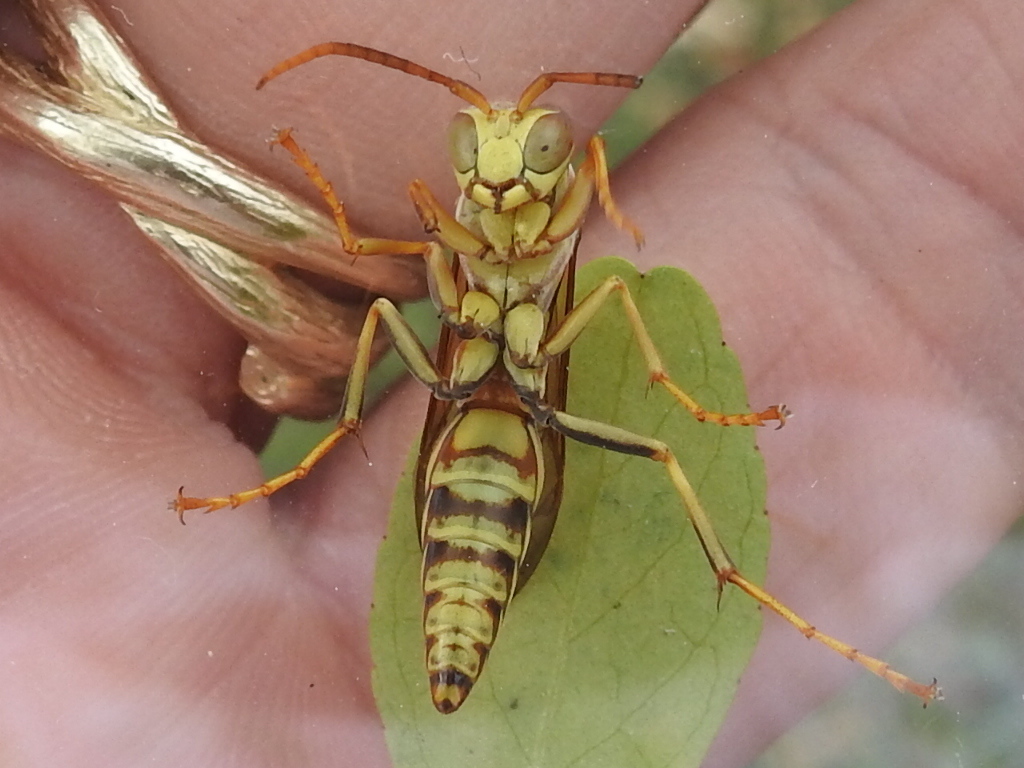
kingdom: Animalia
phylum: Arthropoda
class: Insecta
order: Hymenoptera
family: Eumenidae
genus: Polistes
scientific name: Polistes exclamans
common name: Paper wasp
